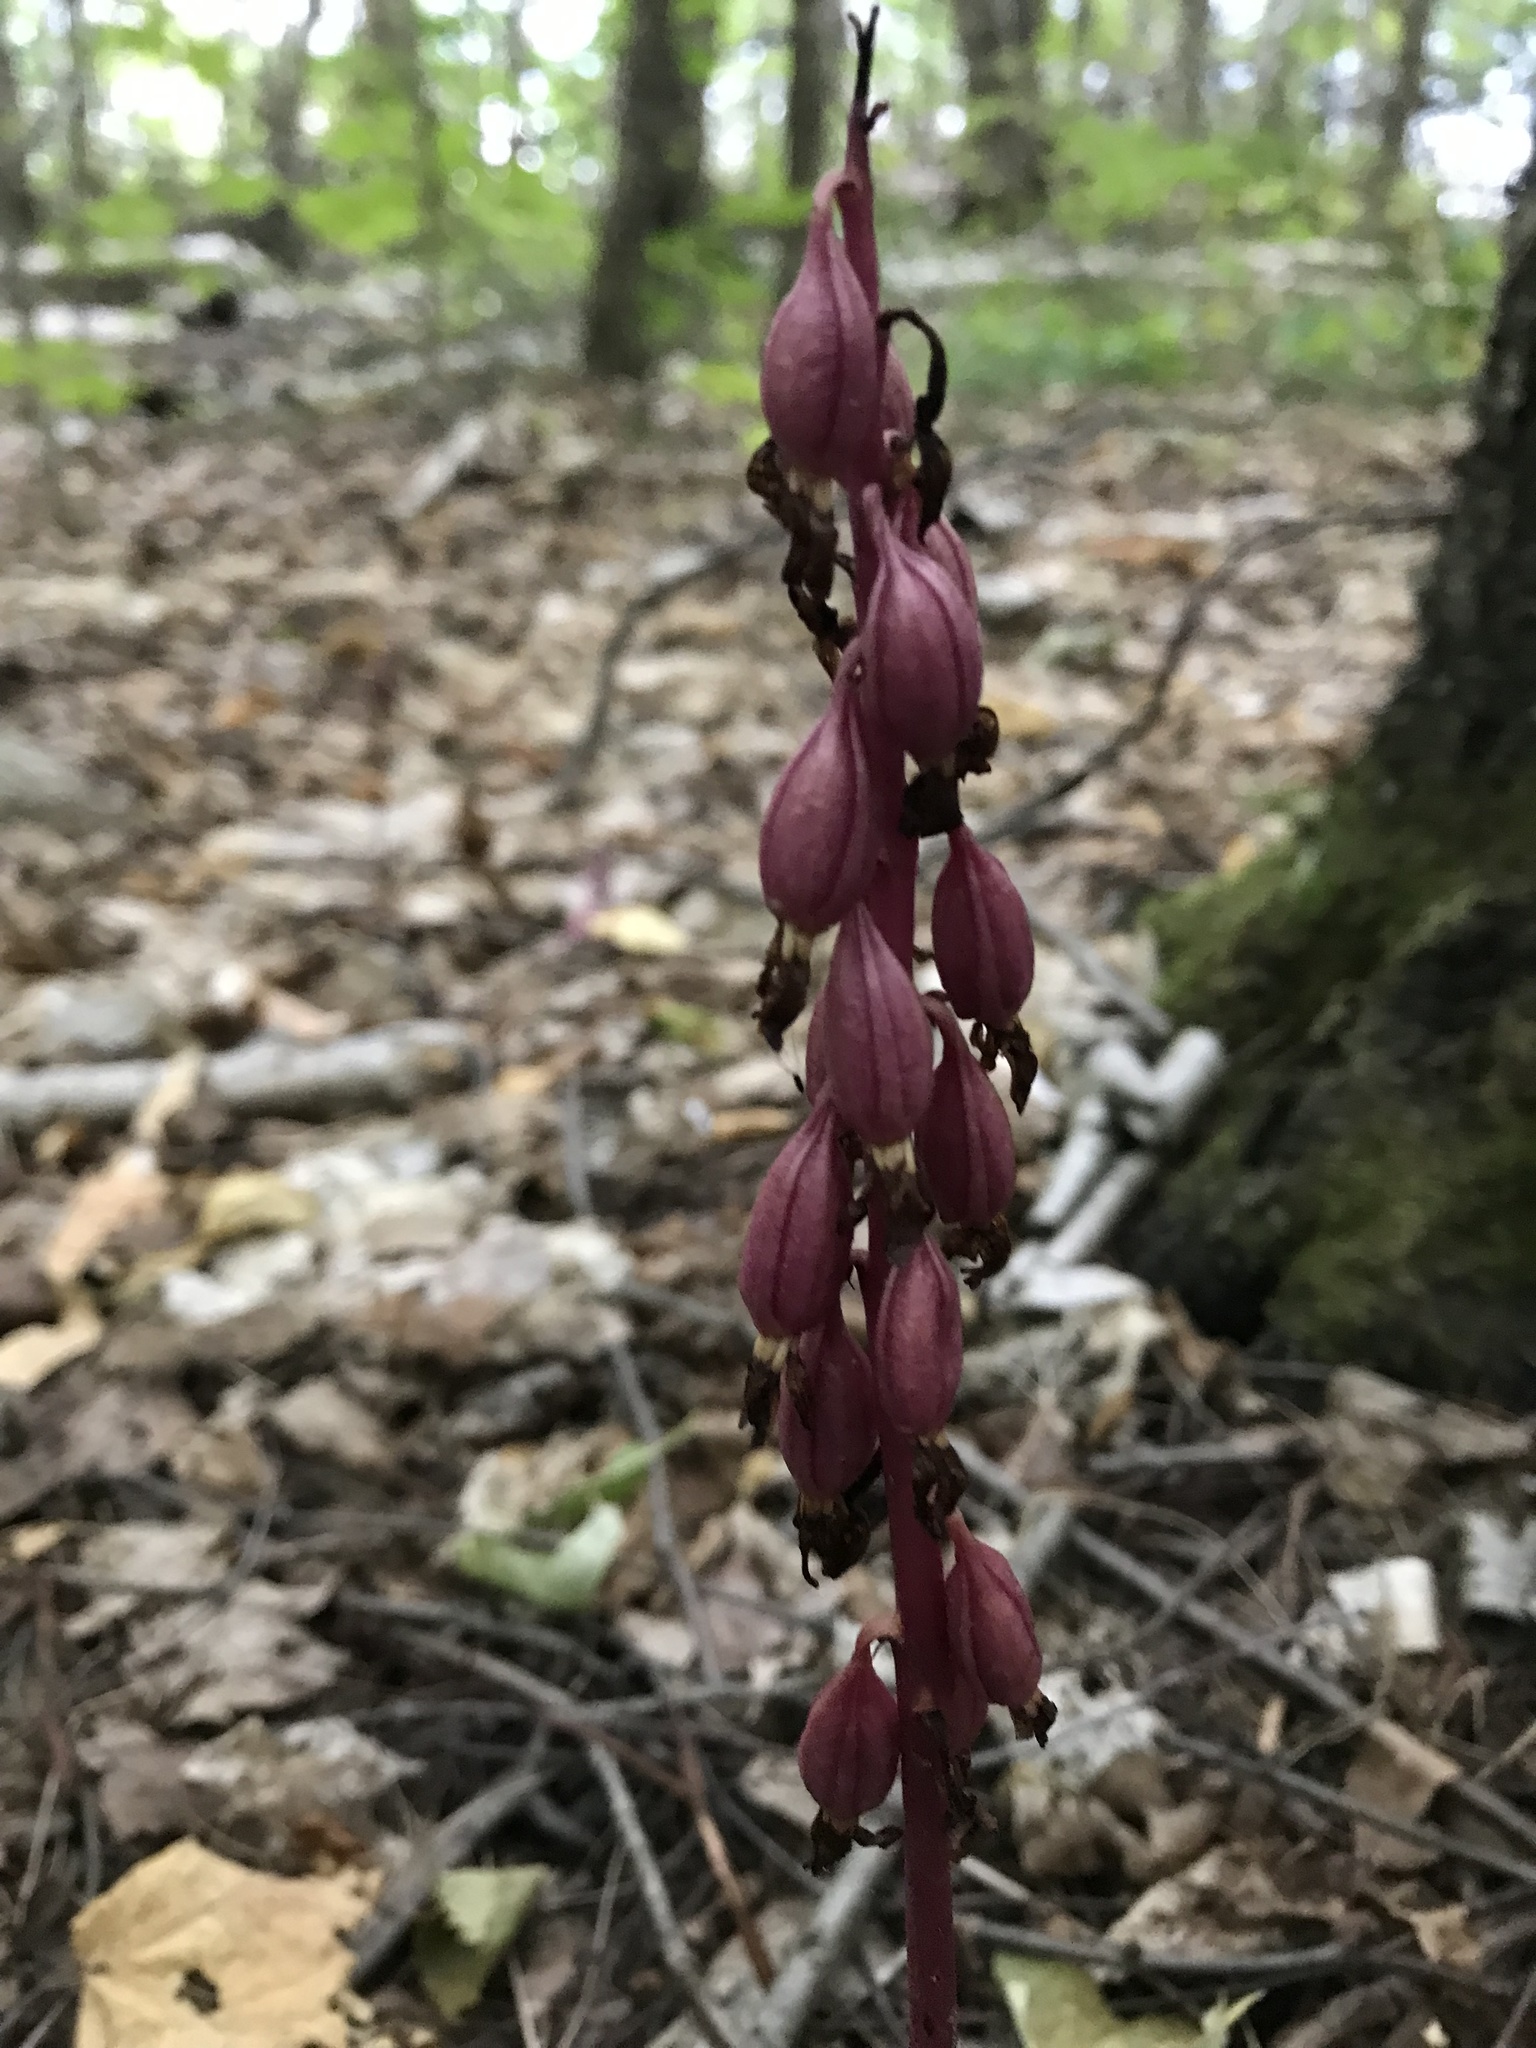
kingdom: Plantae
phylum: Tracheophyta
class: Liliopsida
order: Asparagales
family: Orchidaceae
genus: Corallorhiza
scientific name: Corallorhiza maculata
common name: Spotted coralroot
